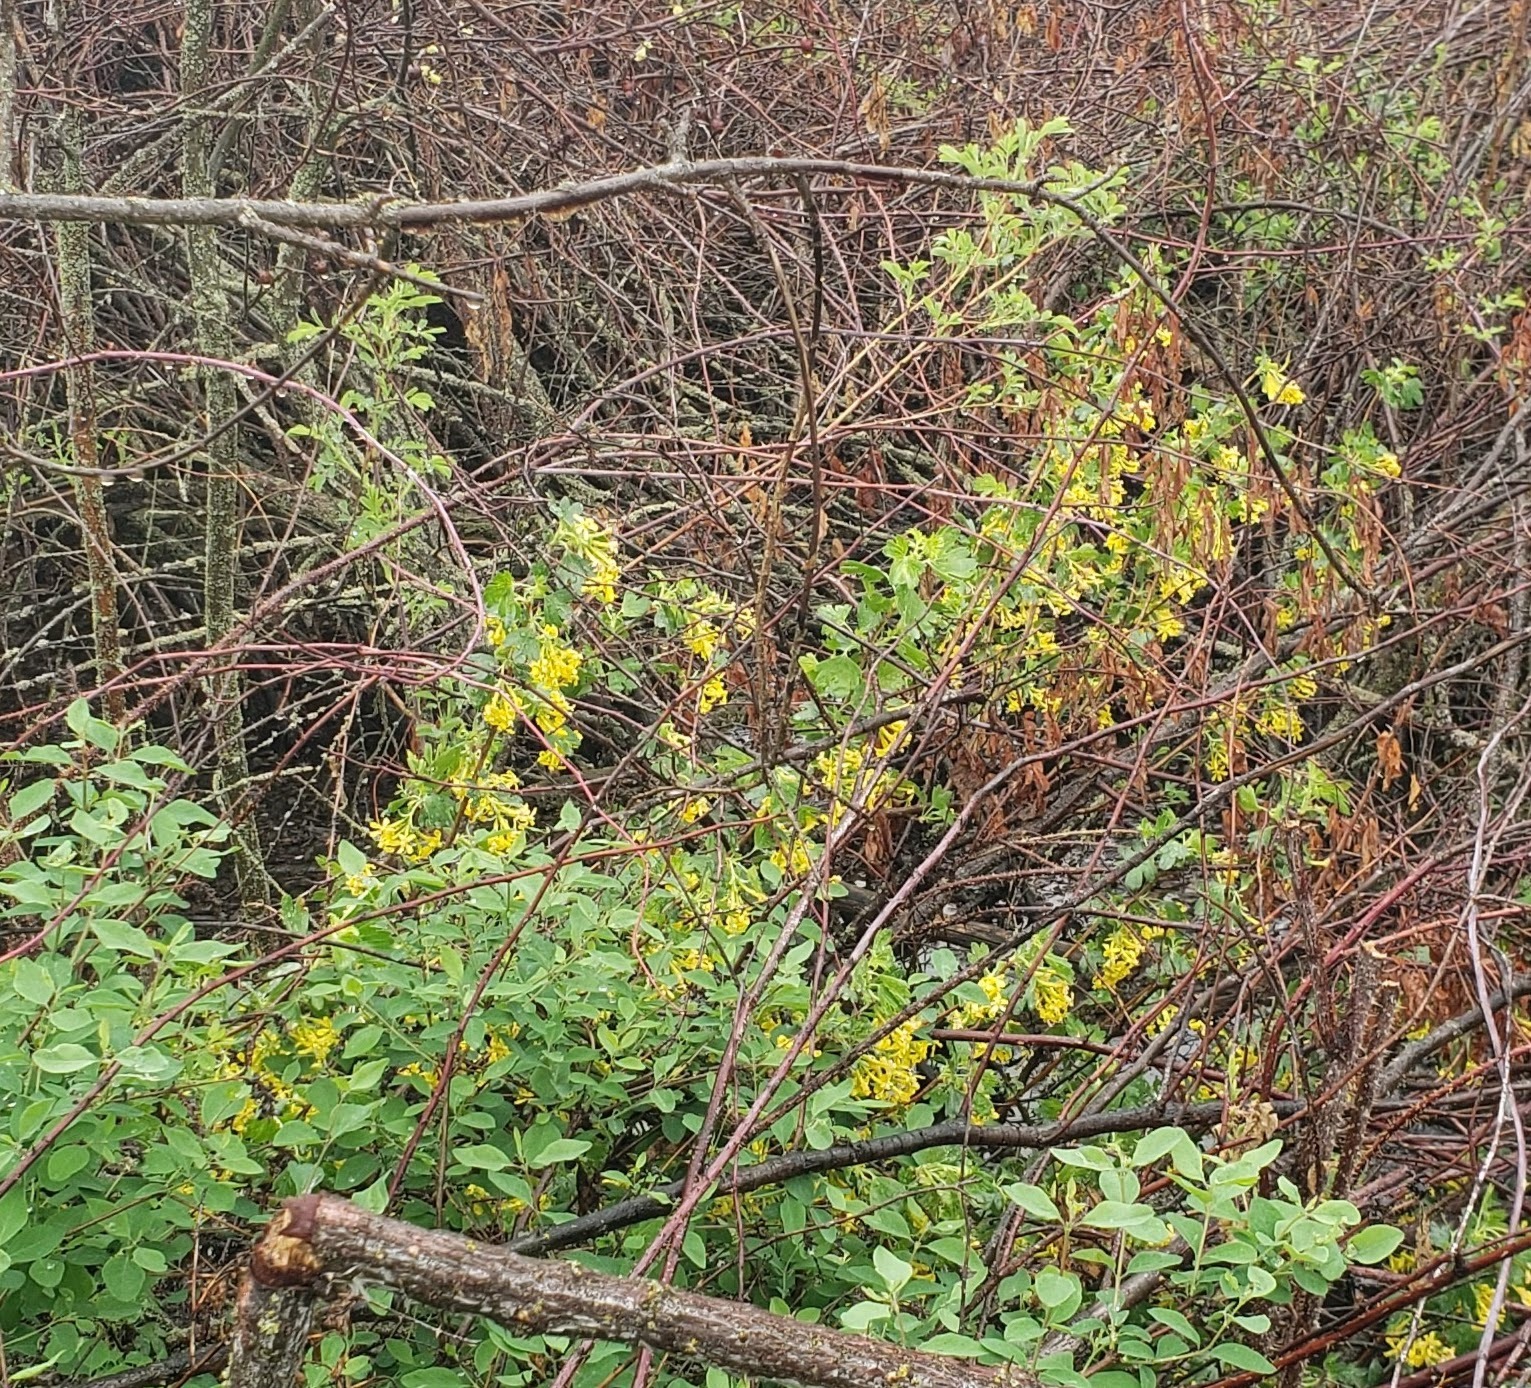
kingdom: Plantae
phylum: Tracheophyta
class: Magnoliopsida
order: Saxifragales
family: Grossulariaceae
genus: Ribes
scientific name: Ribes aureum
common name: Golden currant
